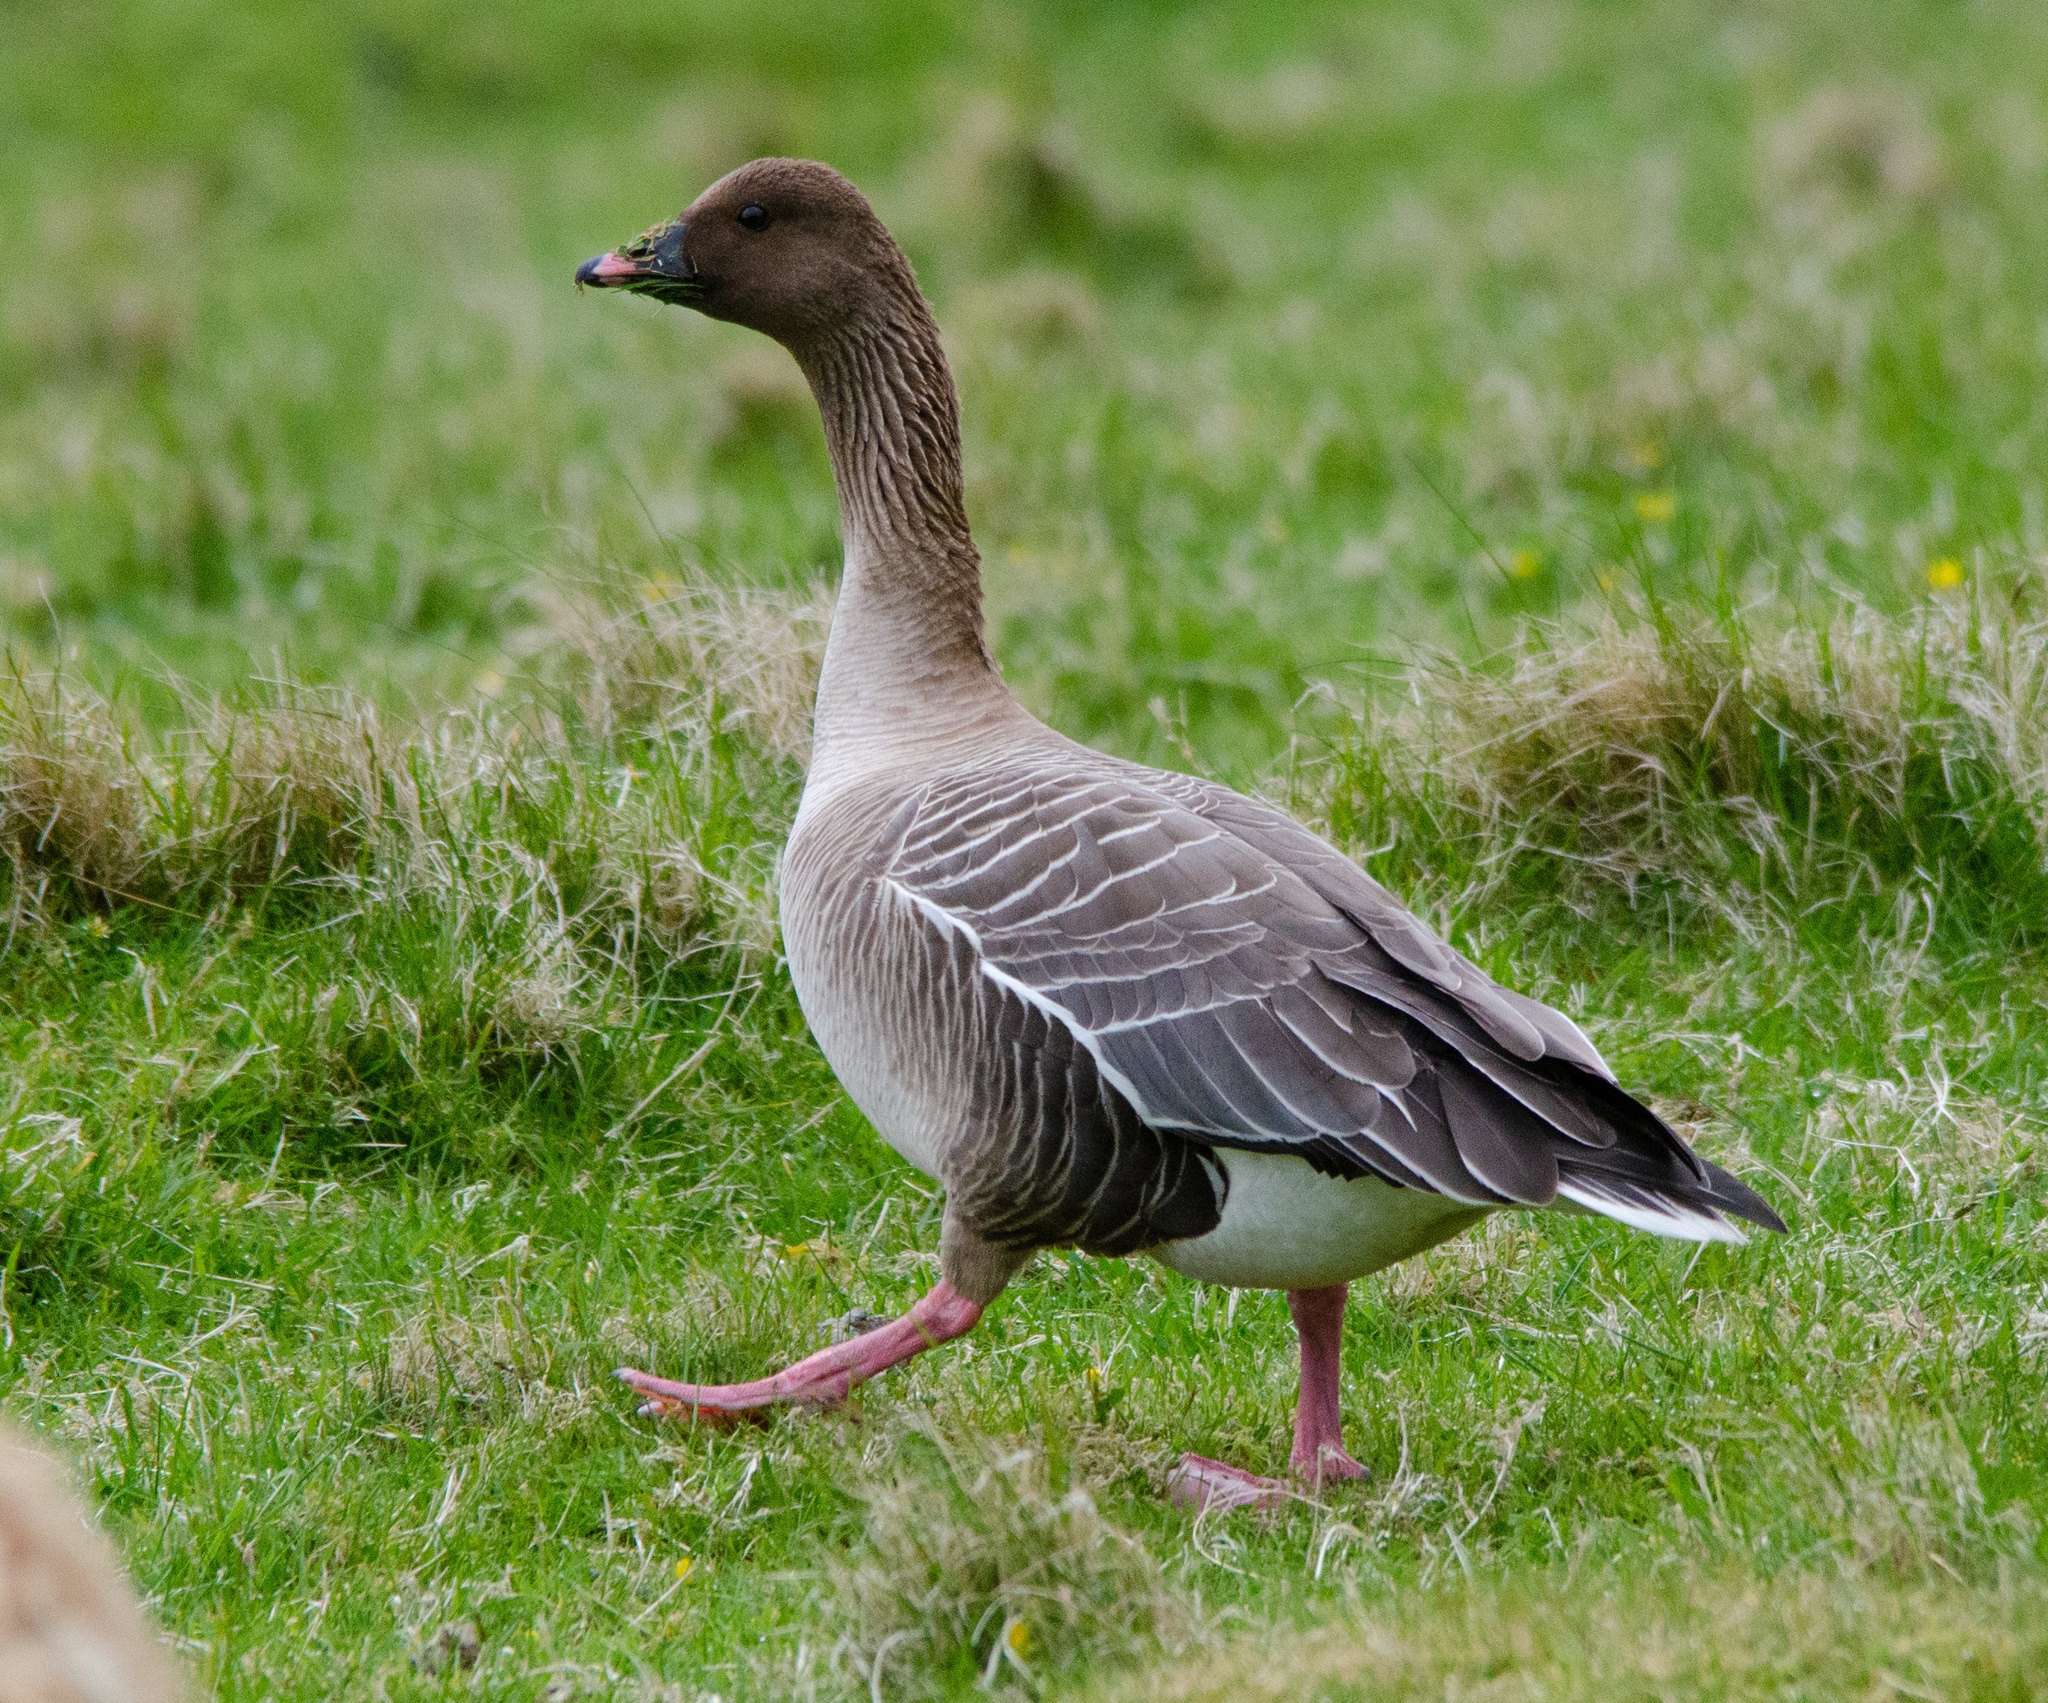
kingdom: Animalia
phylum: Chordata
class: Aves
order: Anseriformes
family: Anatidae
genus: Anser
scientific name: Anser brachyrhynchus
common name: Pink-footed goose
